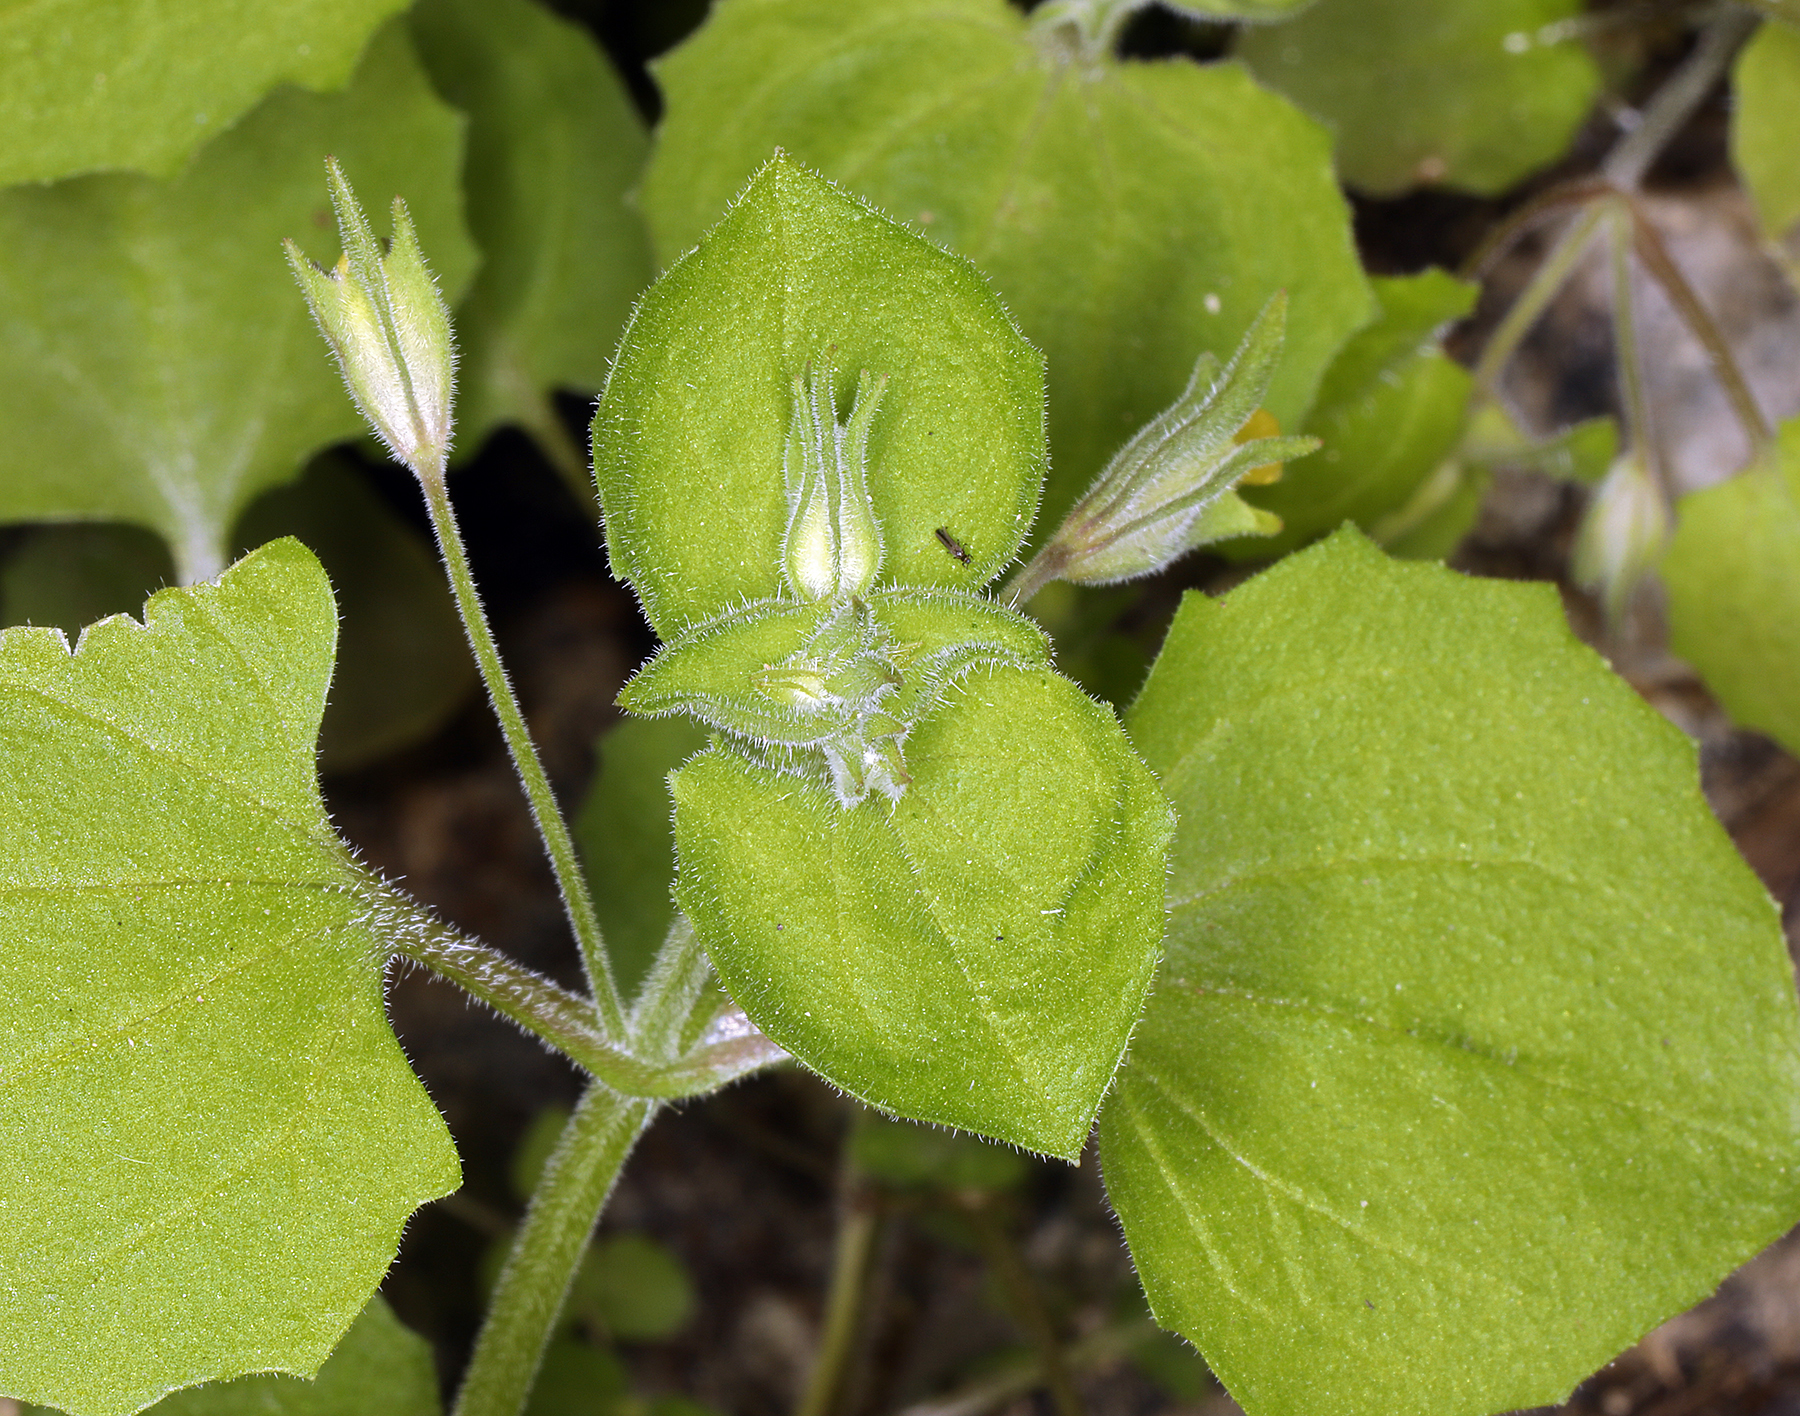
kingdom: Plantae
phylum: Tracheophyta
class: Magnoliopsida
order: Lamiales
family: Phrymaceae
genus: Erythranthe
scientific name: Erythranthe bergeri
